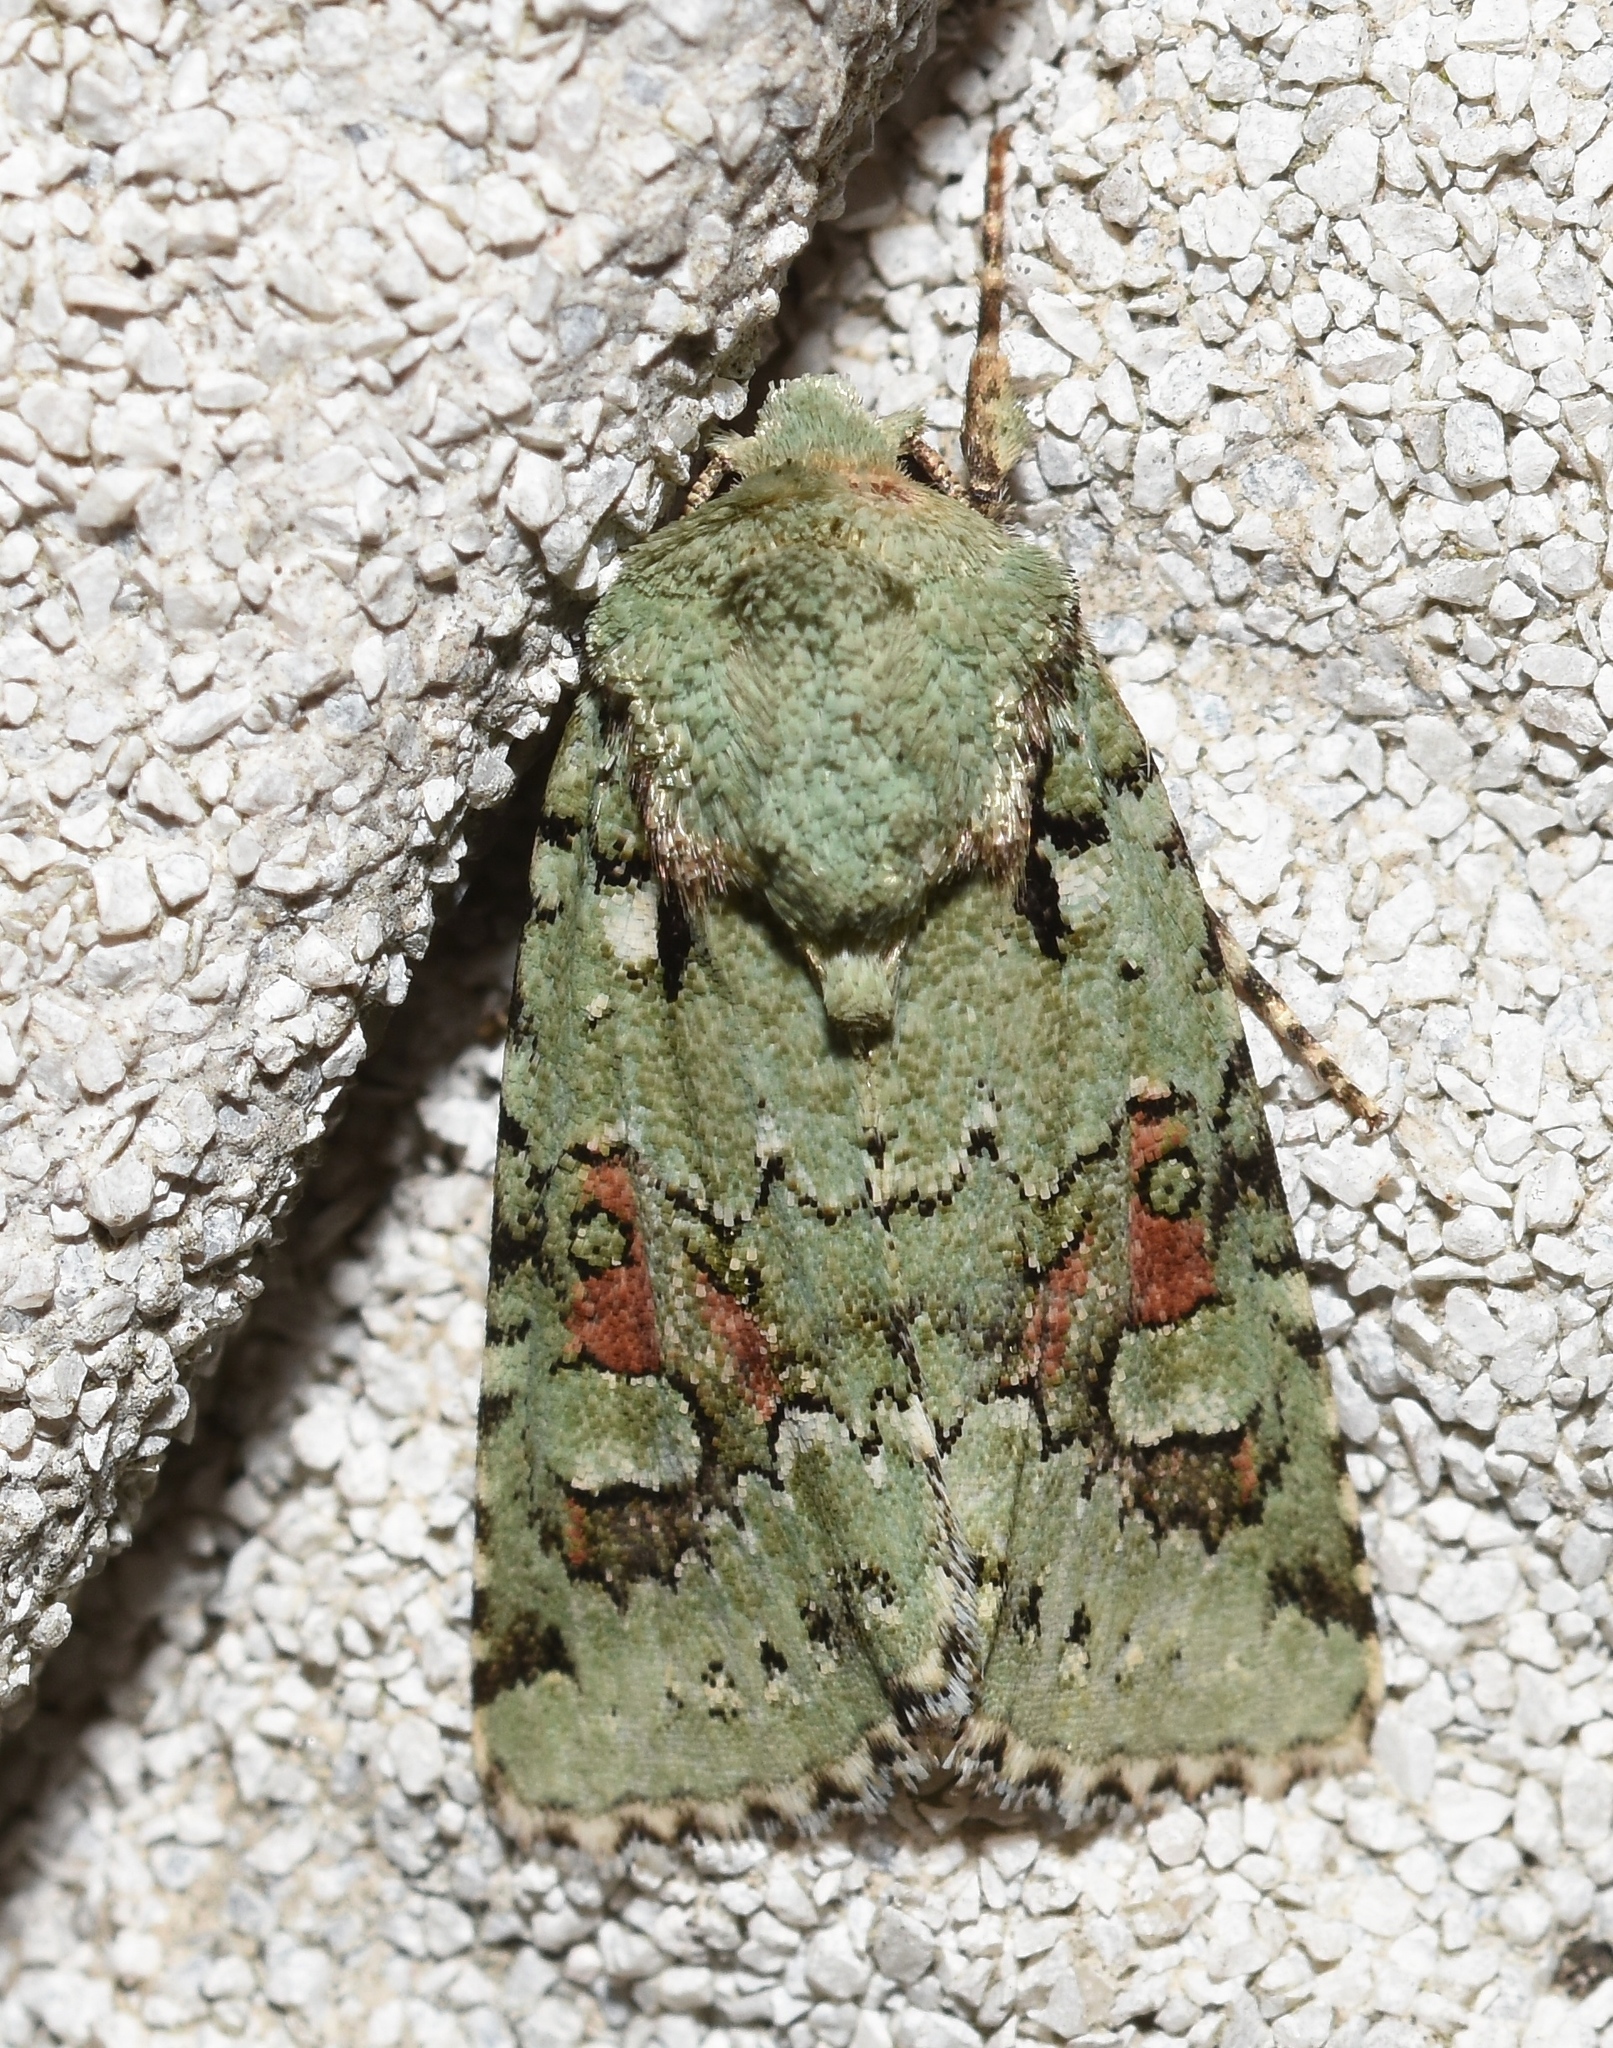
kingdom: Animalia
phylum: Arthropoda
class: Insecta
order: Lepidoptera
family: Noctuidae
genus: Lacinipolia
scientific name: Lacinipolia laudabilis
